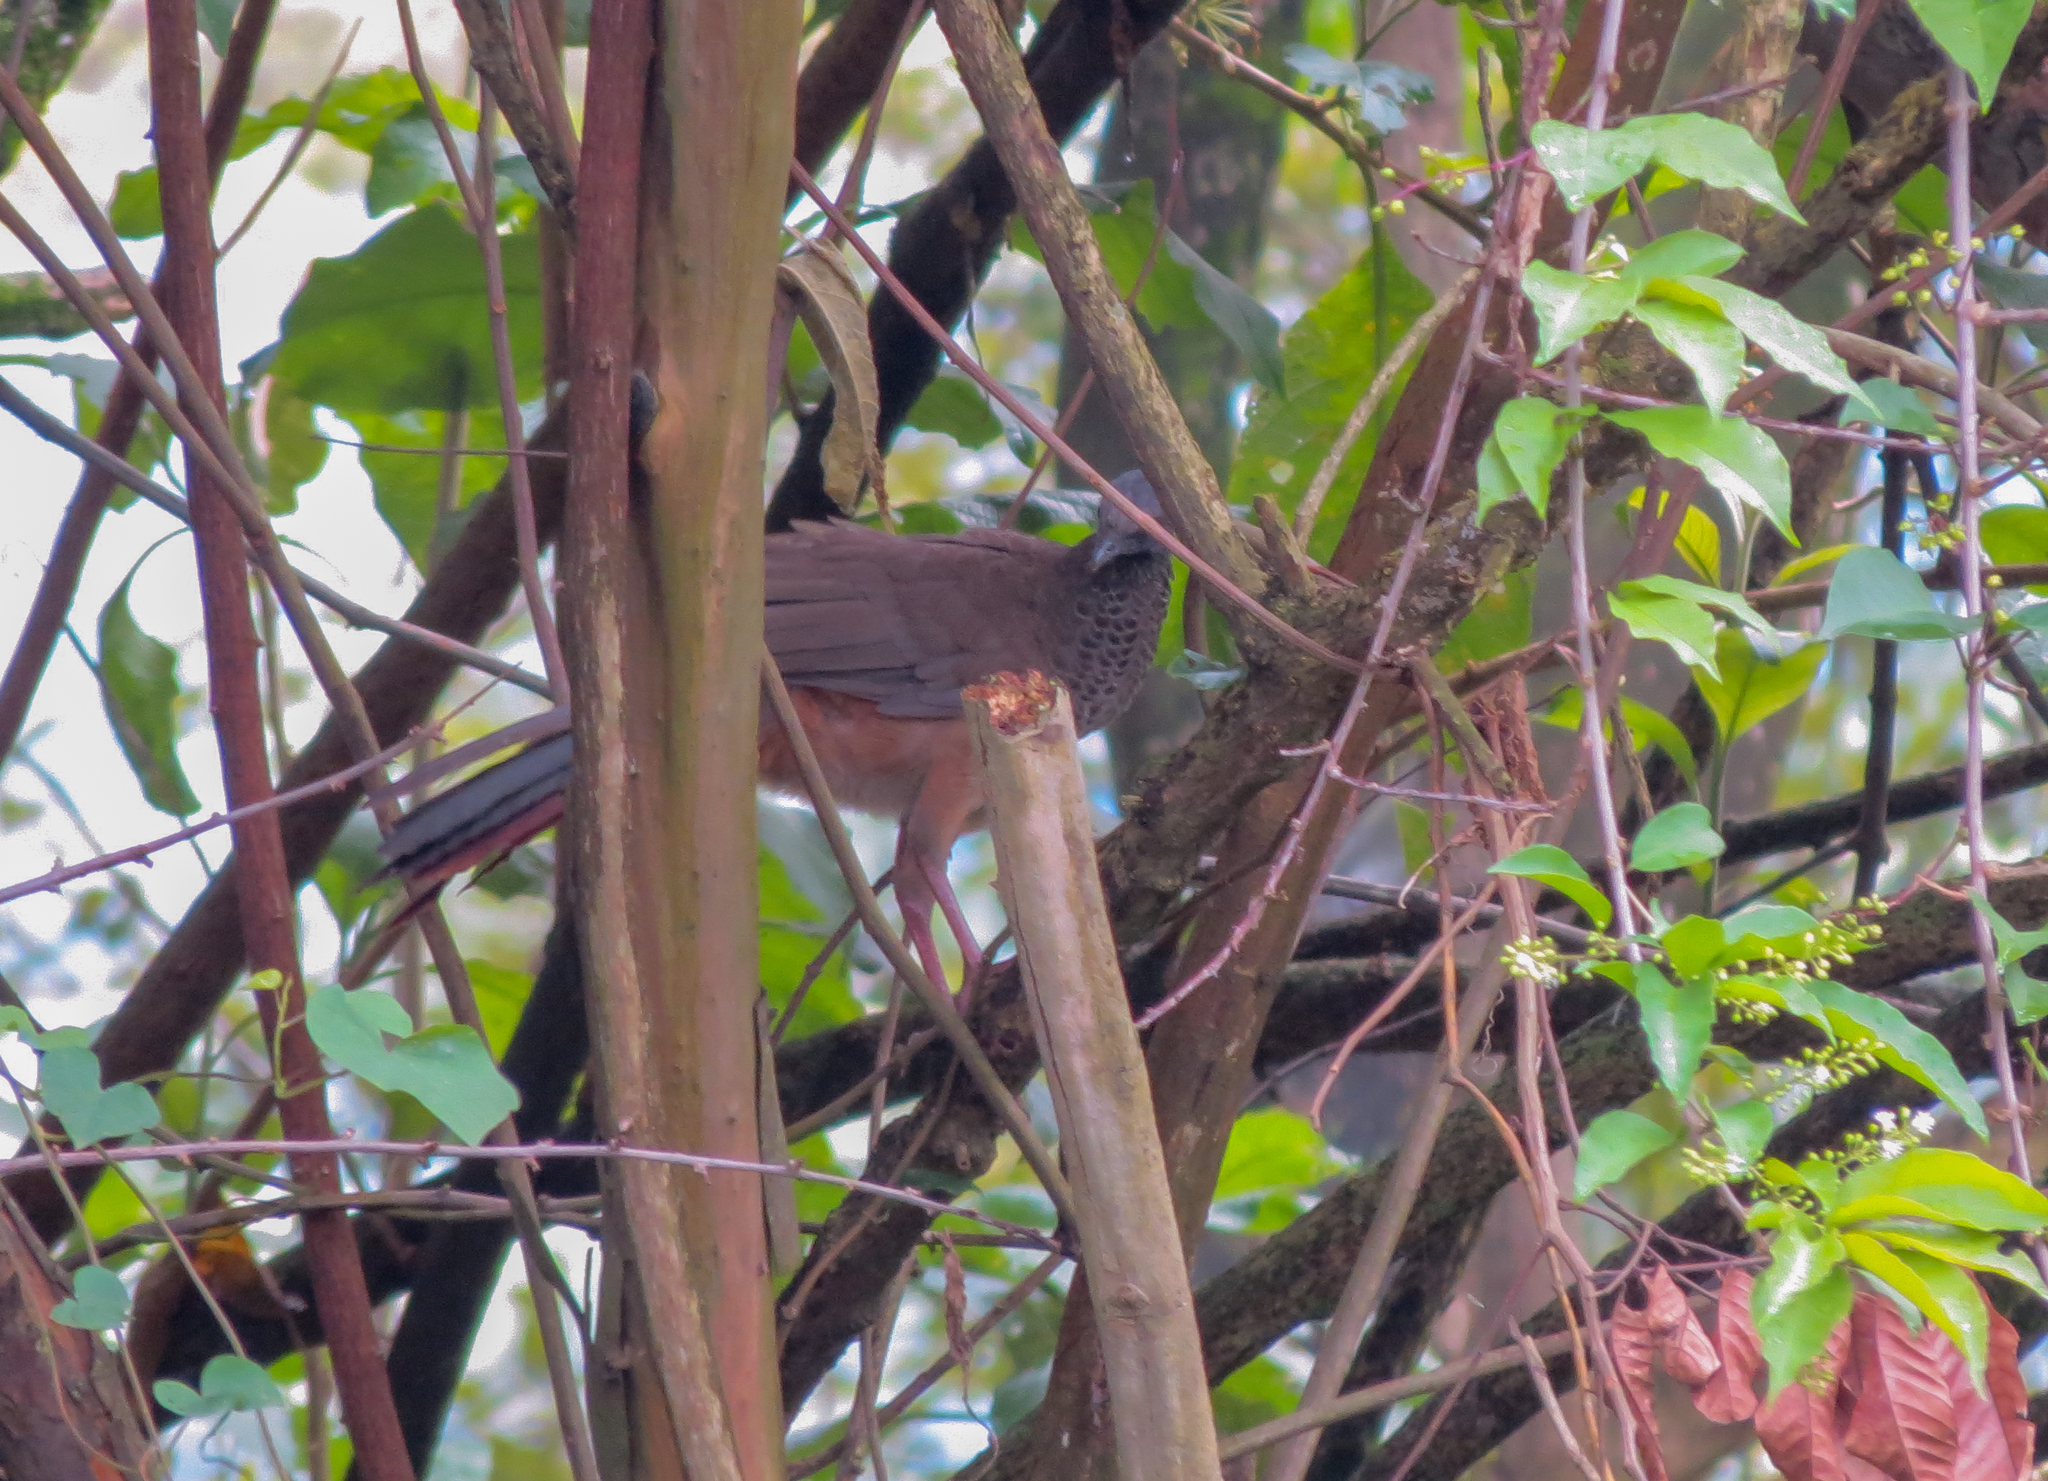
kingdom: Animalia
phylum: Chordata
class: Aves
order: Galliformes
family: Cracidae
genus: Ortalis
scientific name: Ortalis columbiana
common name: Colombian chachalaca
